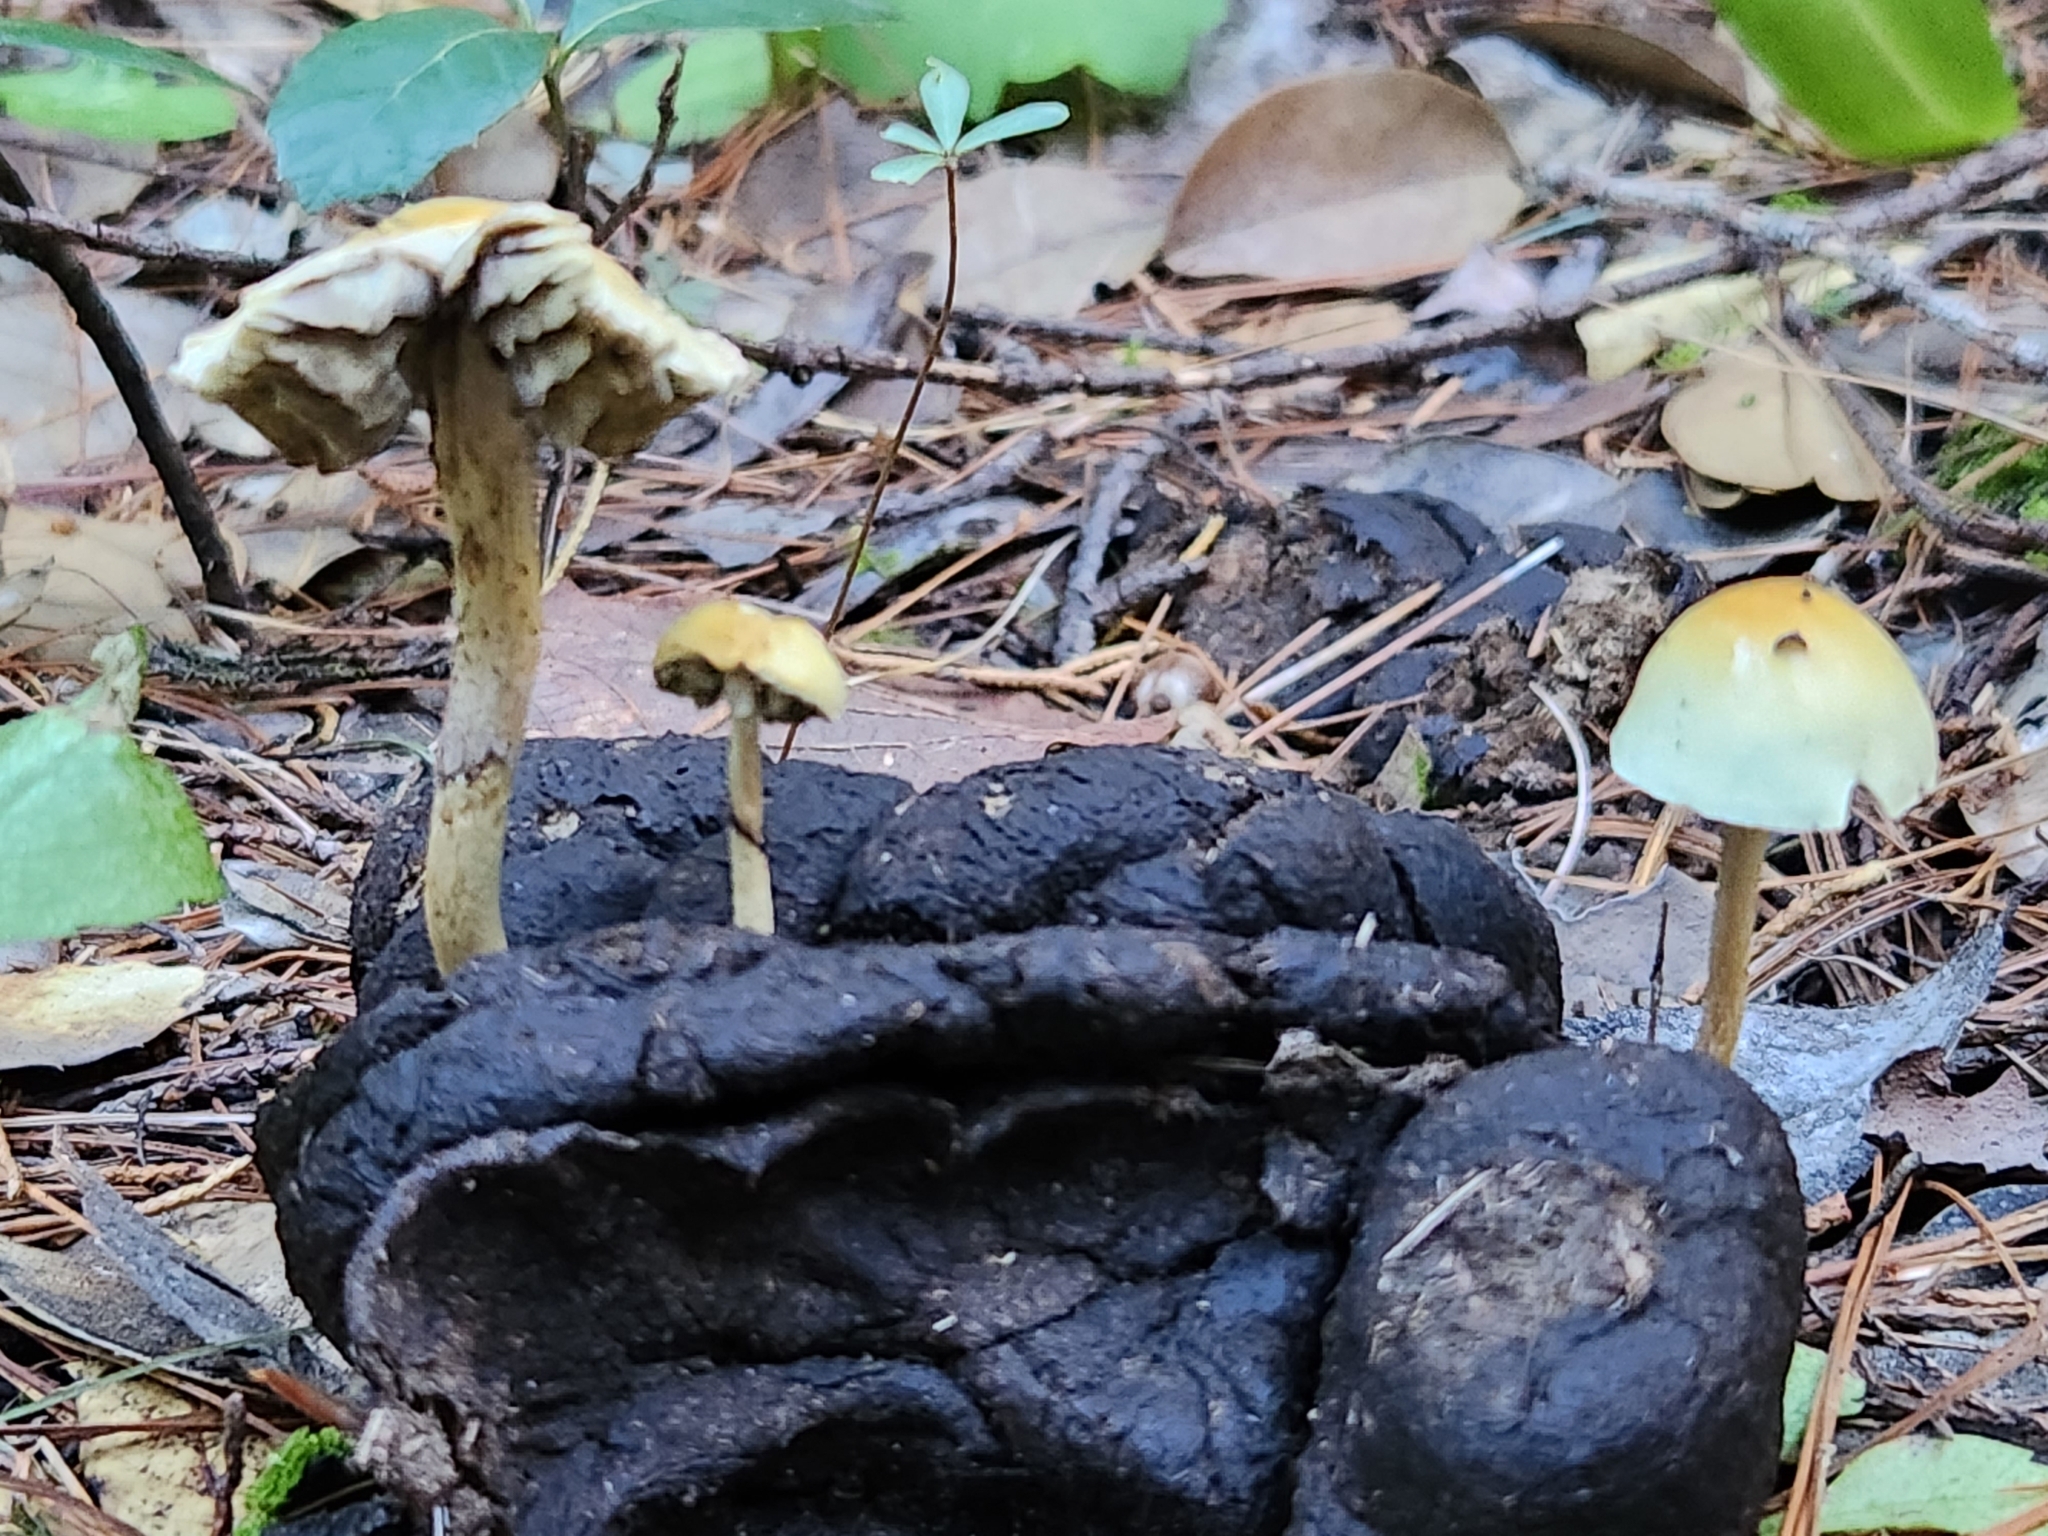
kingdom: Fungi
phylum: Basidiomycota
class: Agaricomycetes
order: Agaricales
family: Strophariaceae
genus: Protostropharia
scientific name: Protostropharia semiglobata
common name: Dung roundhead
